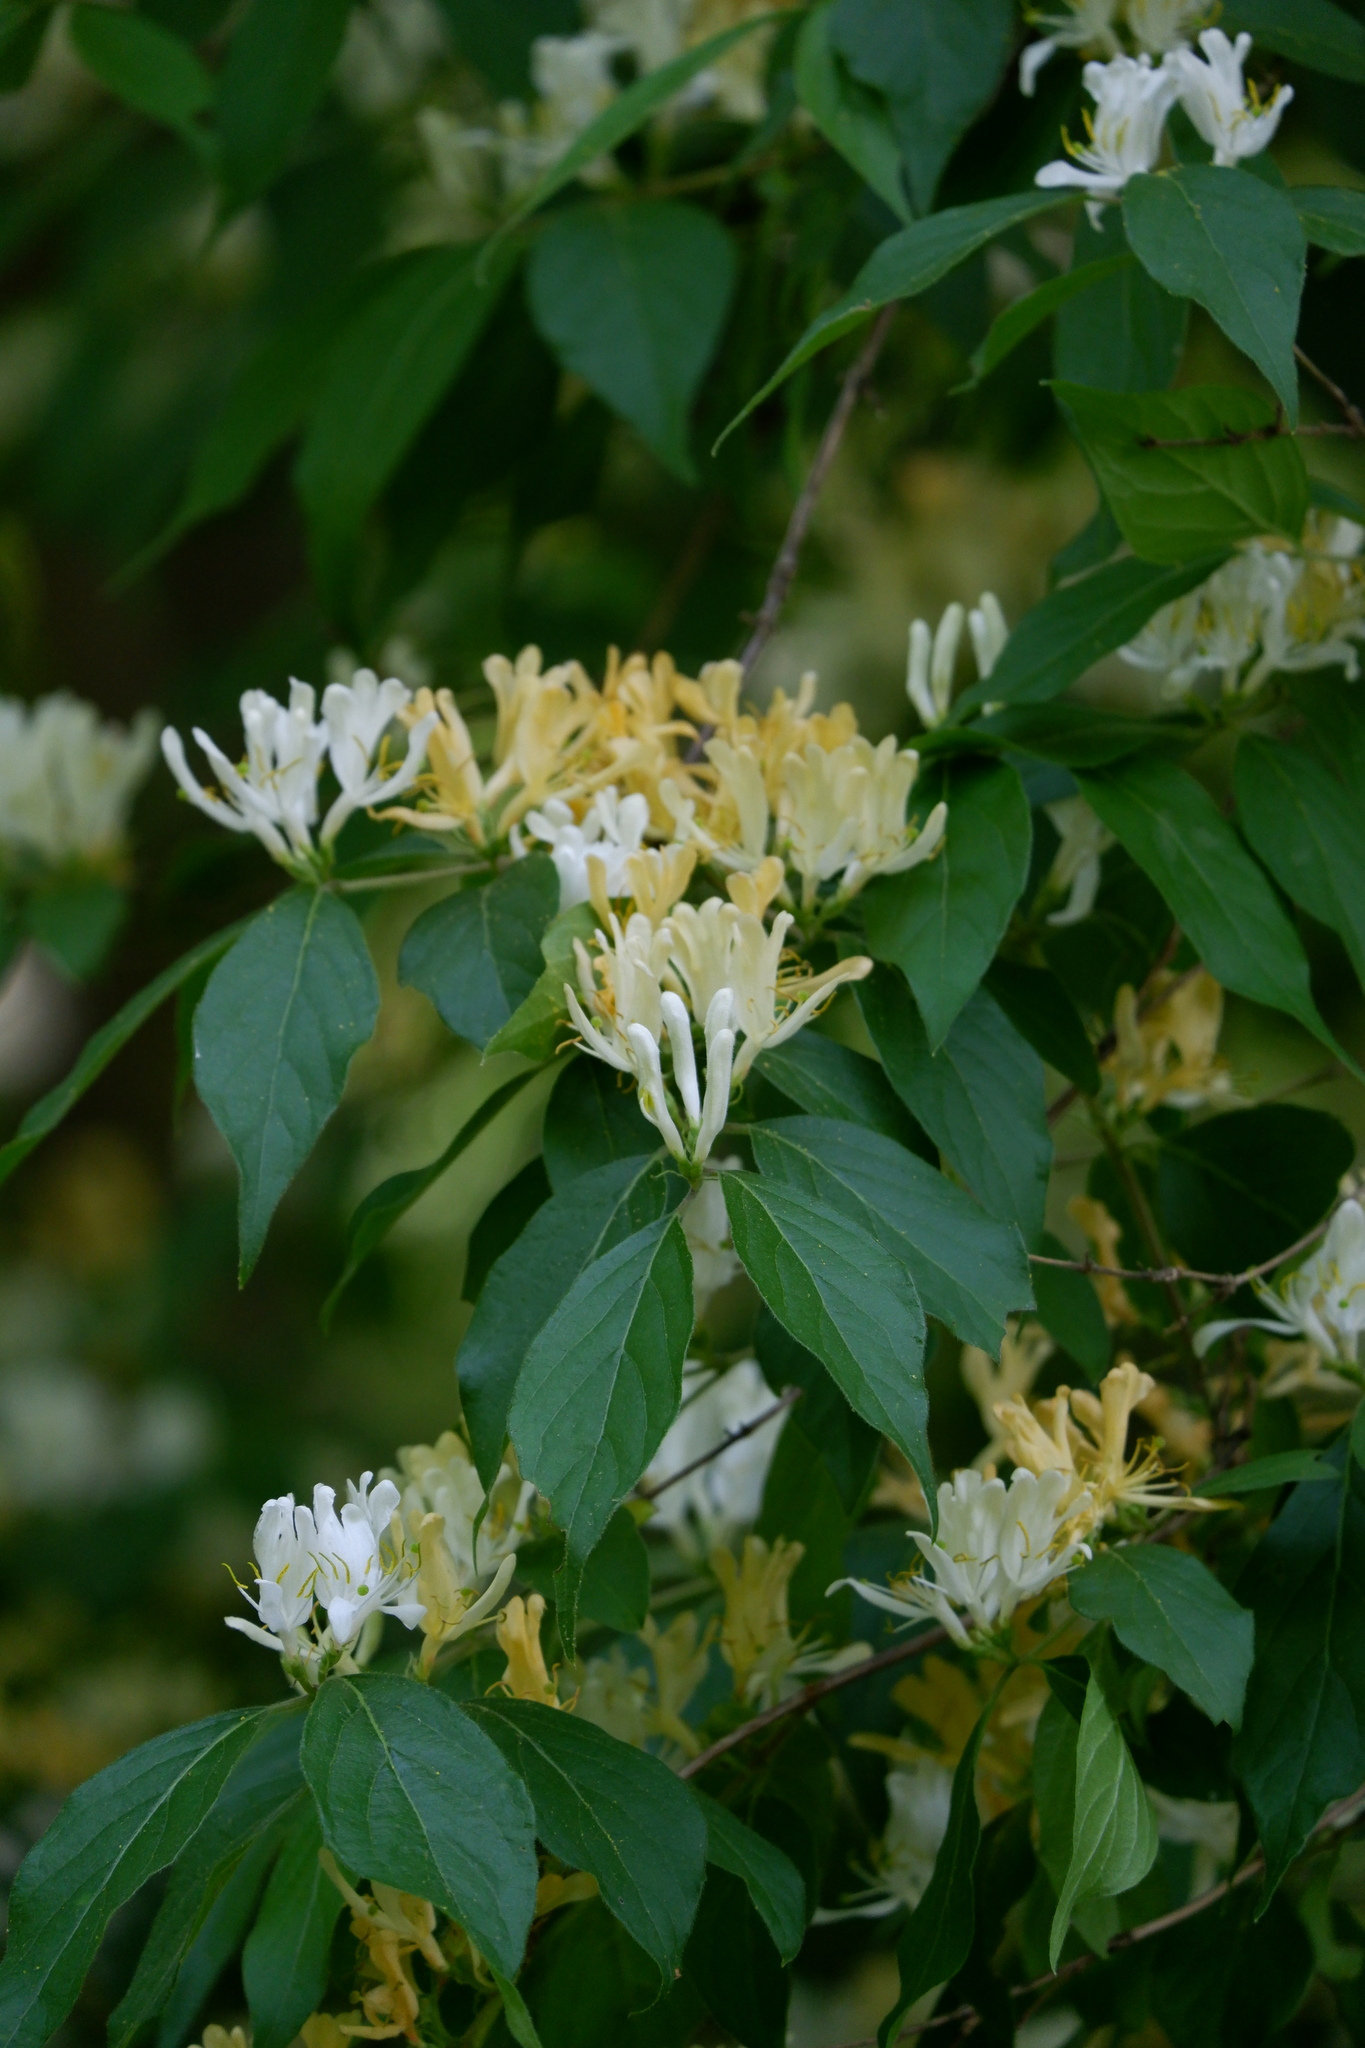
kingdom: Plantae
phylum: Tracheophyta
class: Magnoliopsida
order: Dipsacales
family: Caprifoliaceae
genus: Lonicera
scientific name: Lonicera maackii
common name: Amur honeysuckle
